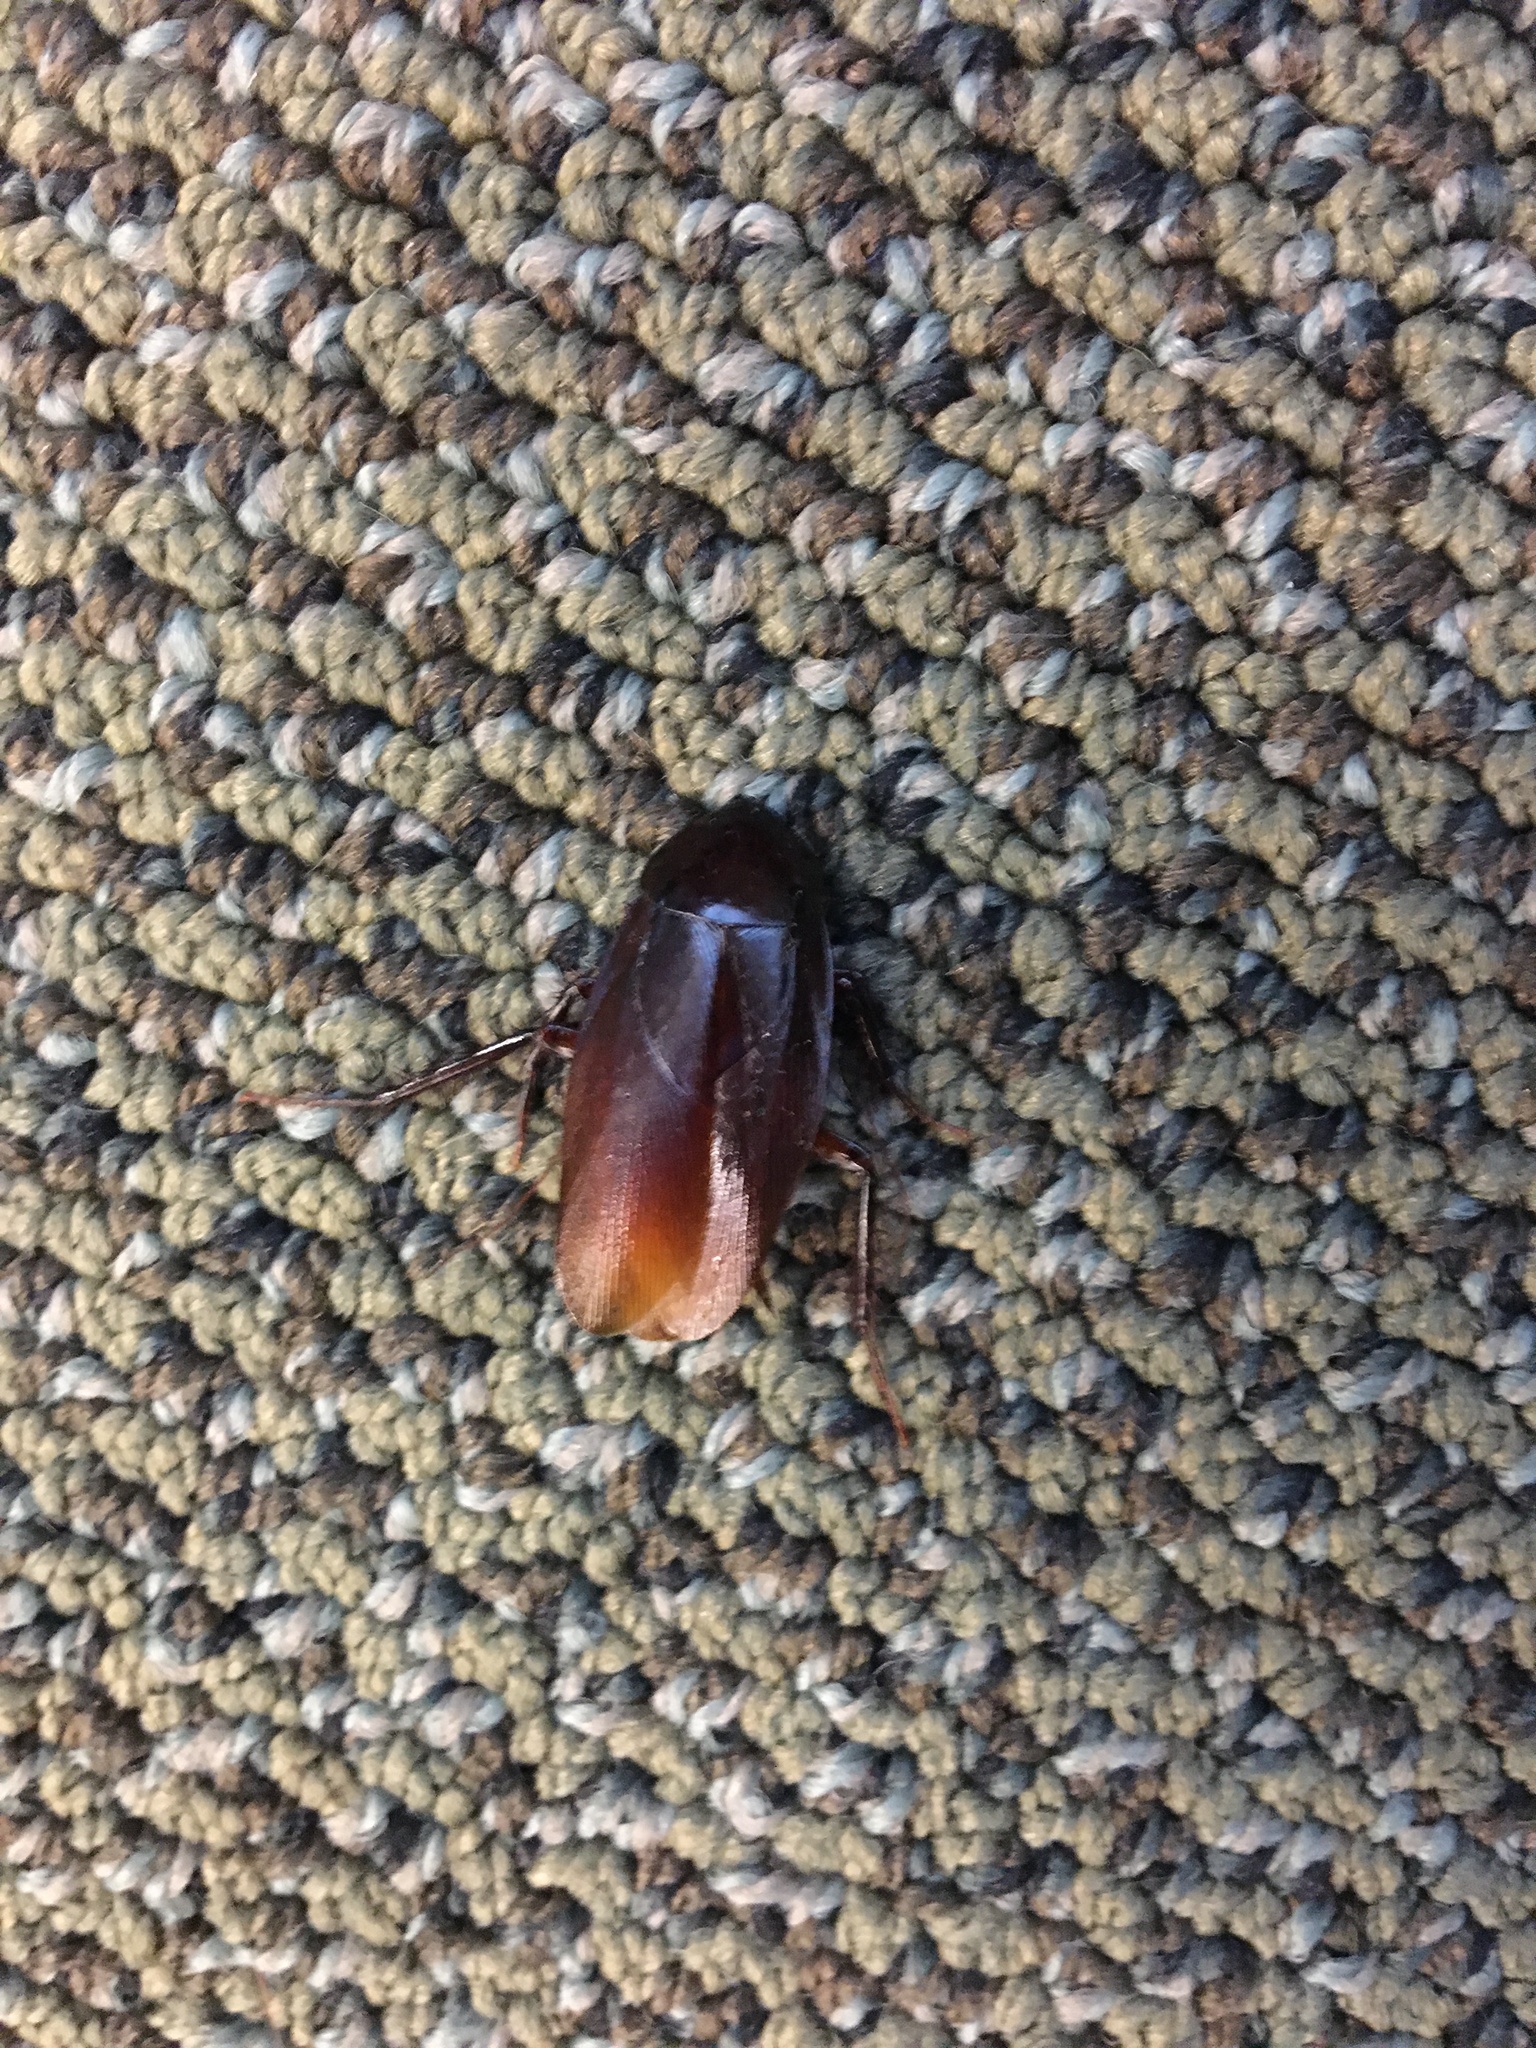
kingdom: Animalia
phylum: Arthropoda
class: Insecta
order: Blattodea
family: Blattidae
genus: Periplaneta
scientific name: Periplaneta fuliginosa
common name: Smokeybrown cockroad
